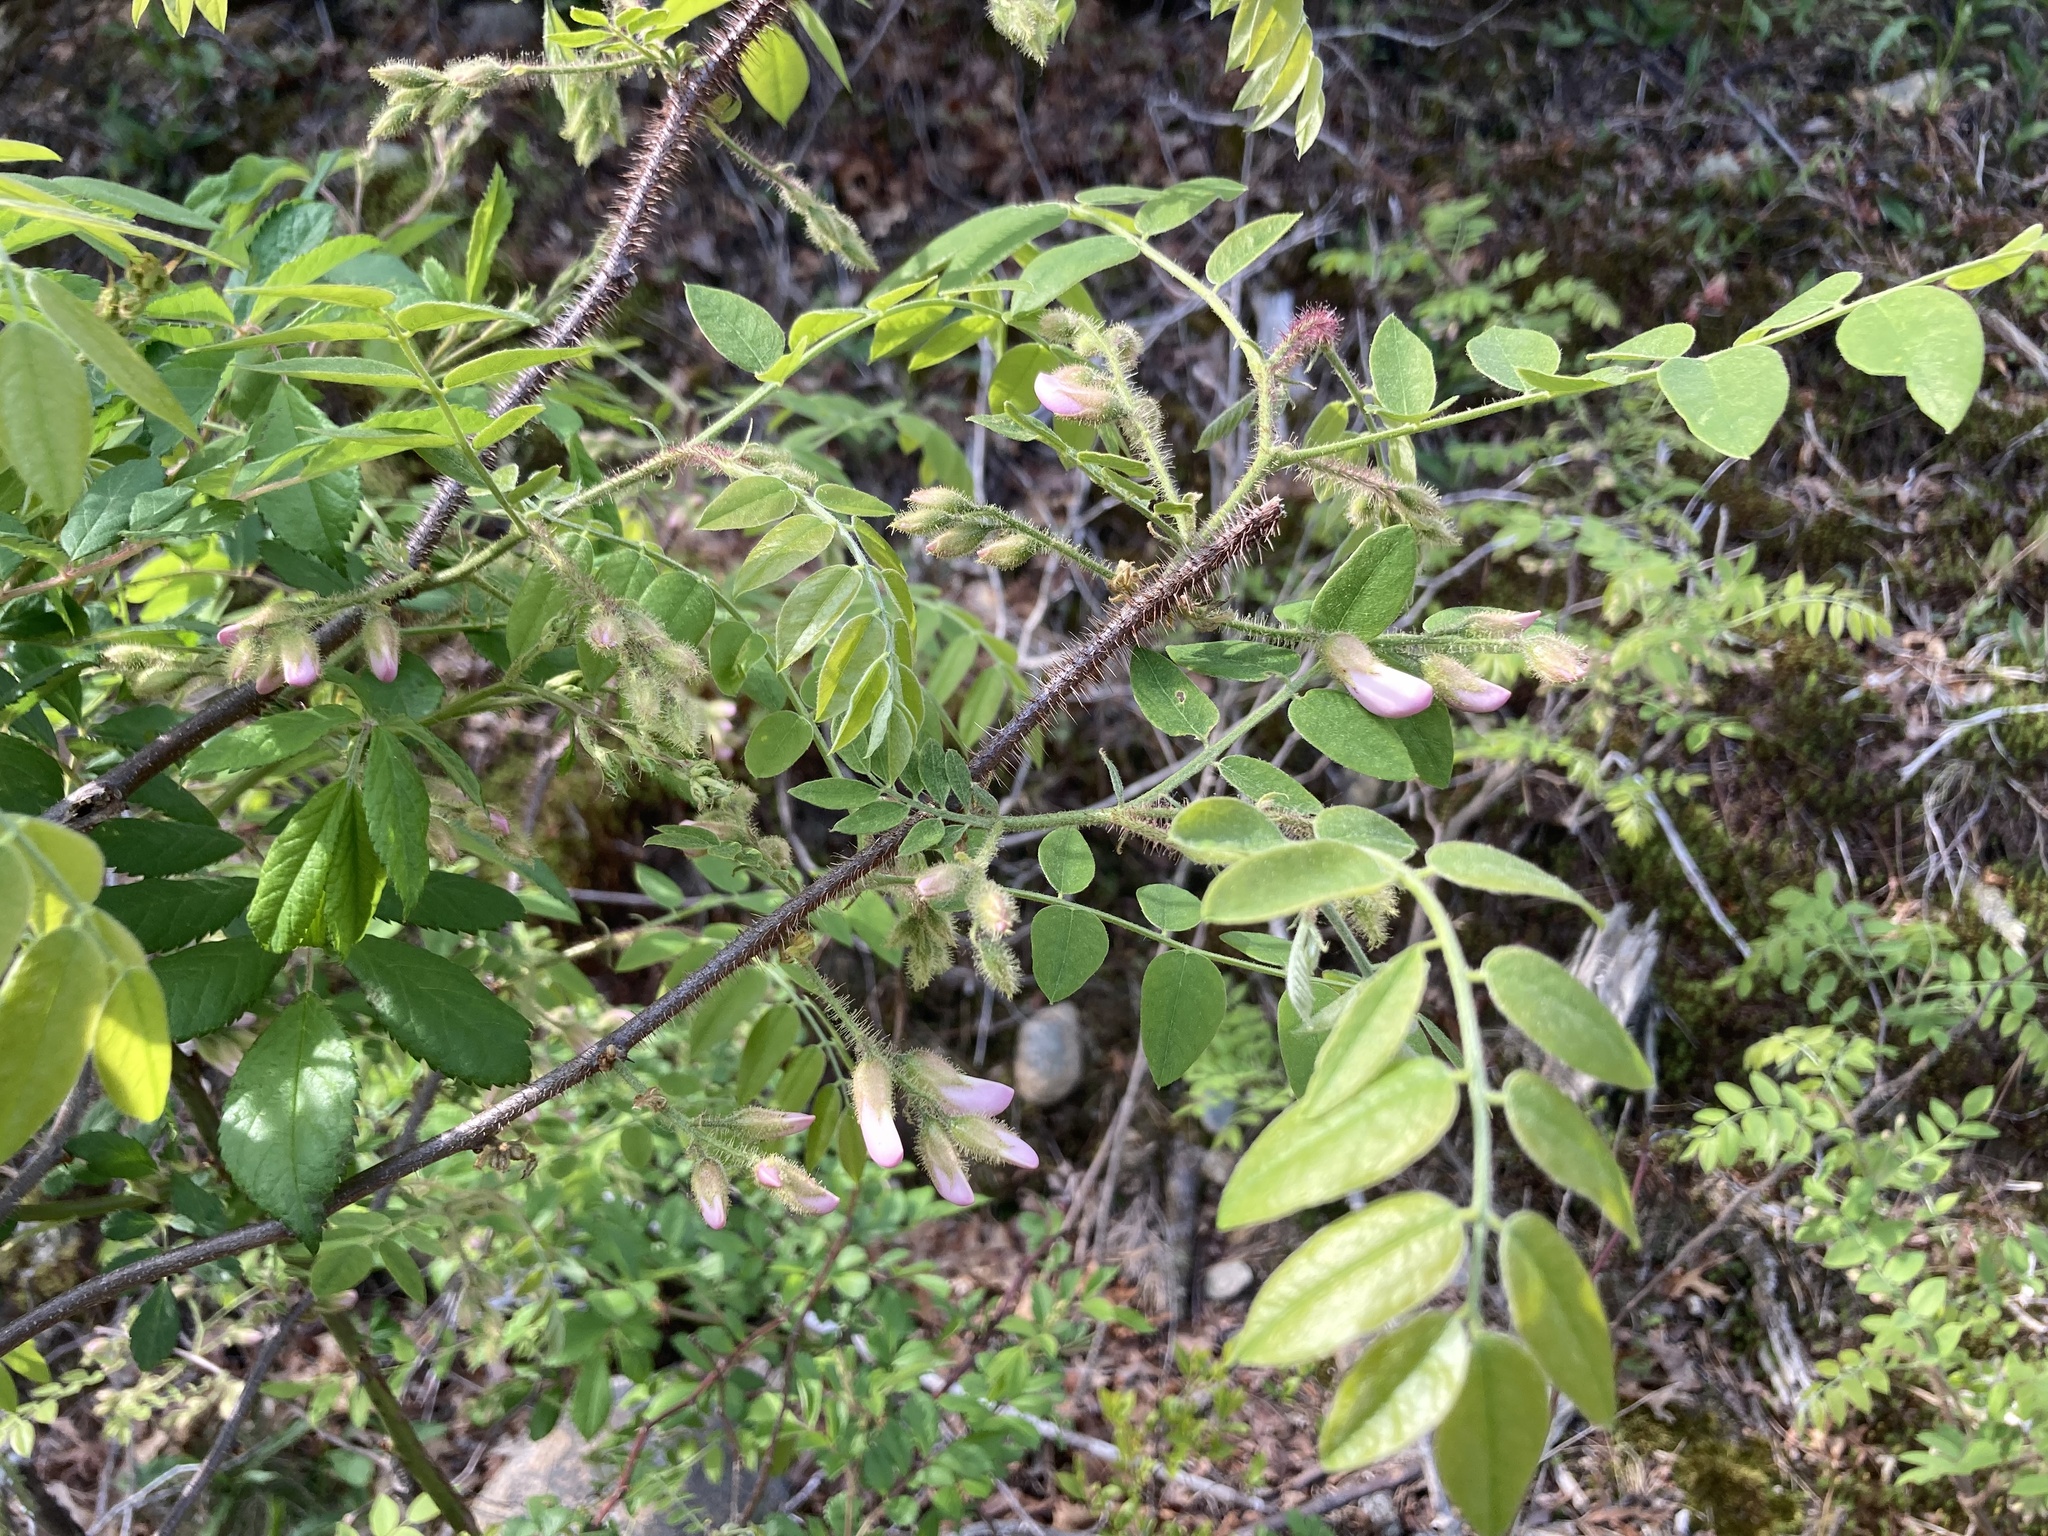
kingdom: Plantae
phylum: Tracheophyta
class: Magnoliopsida
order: Fabales
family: Fabaceae
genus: Robinia
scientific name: Robinia hispida
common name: Bristly locust
